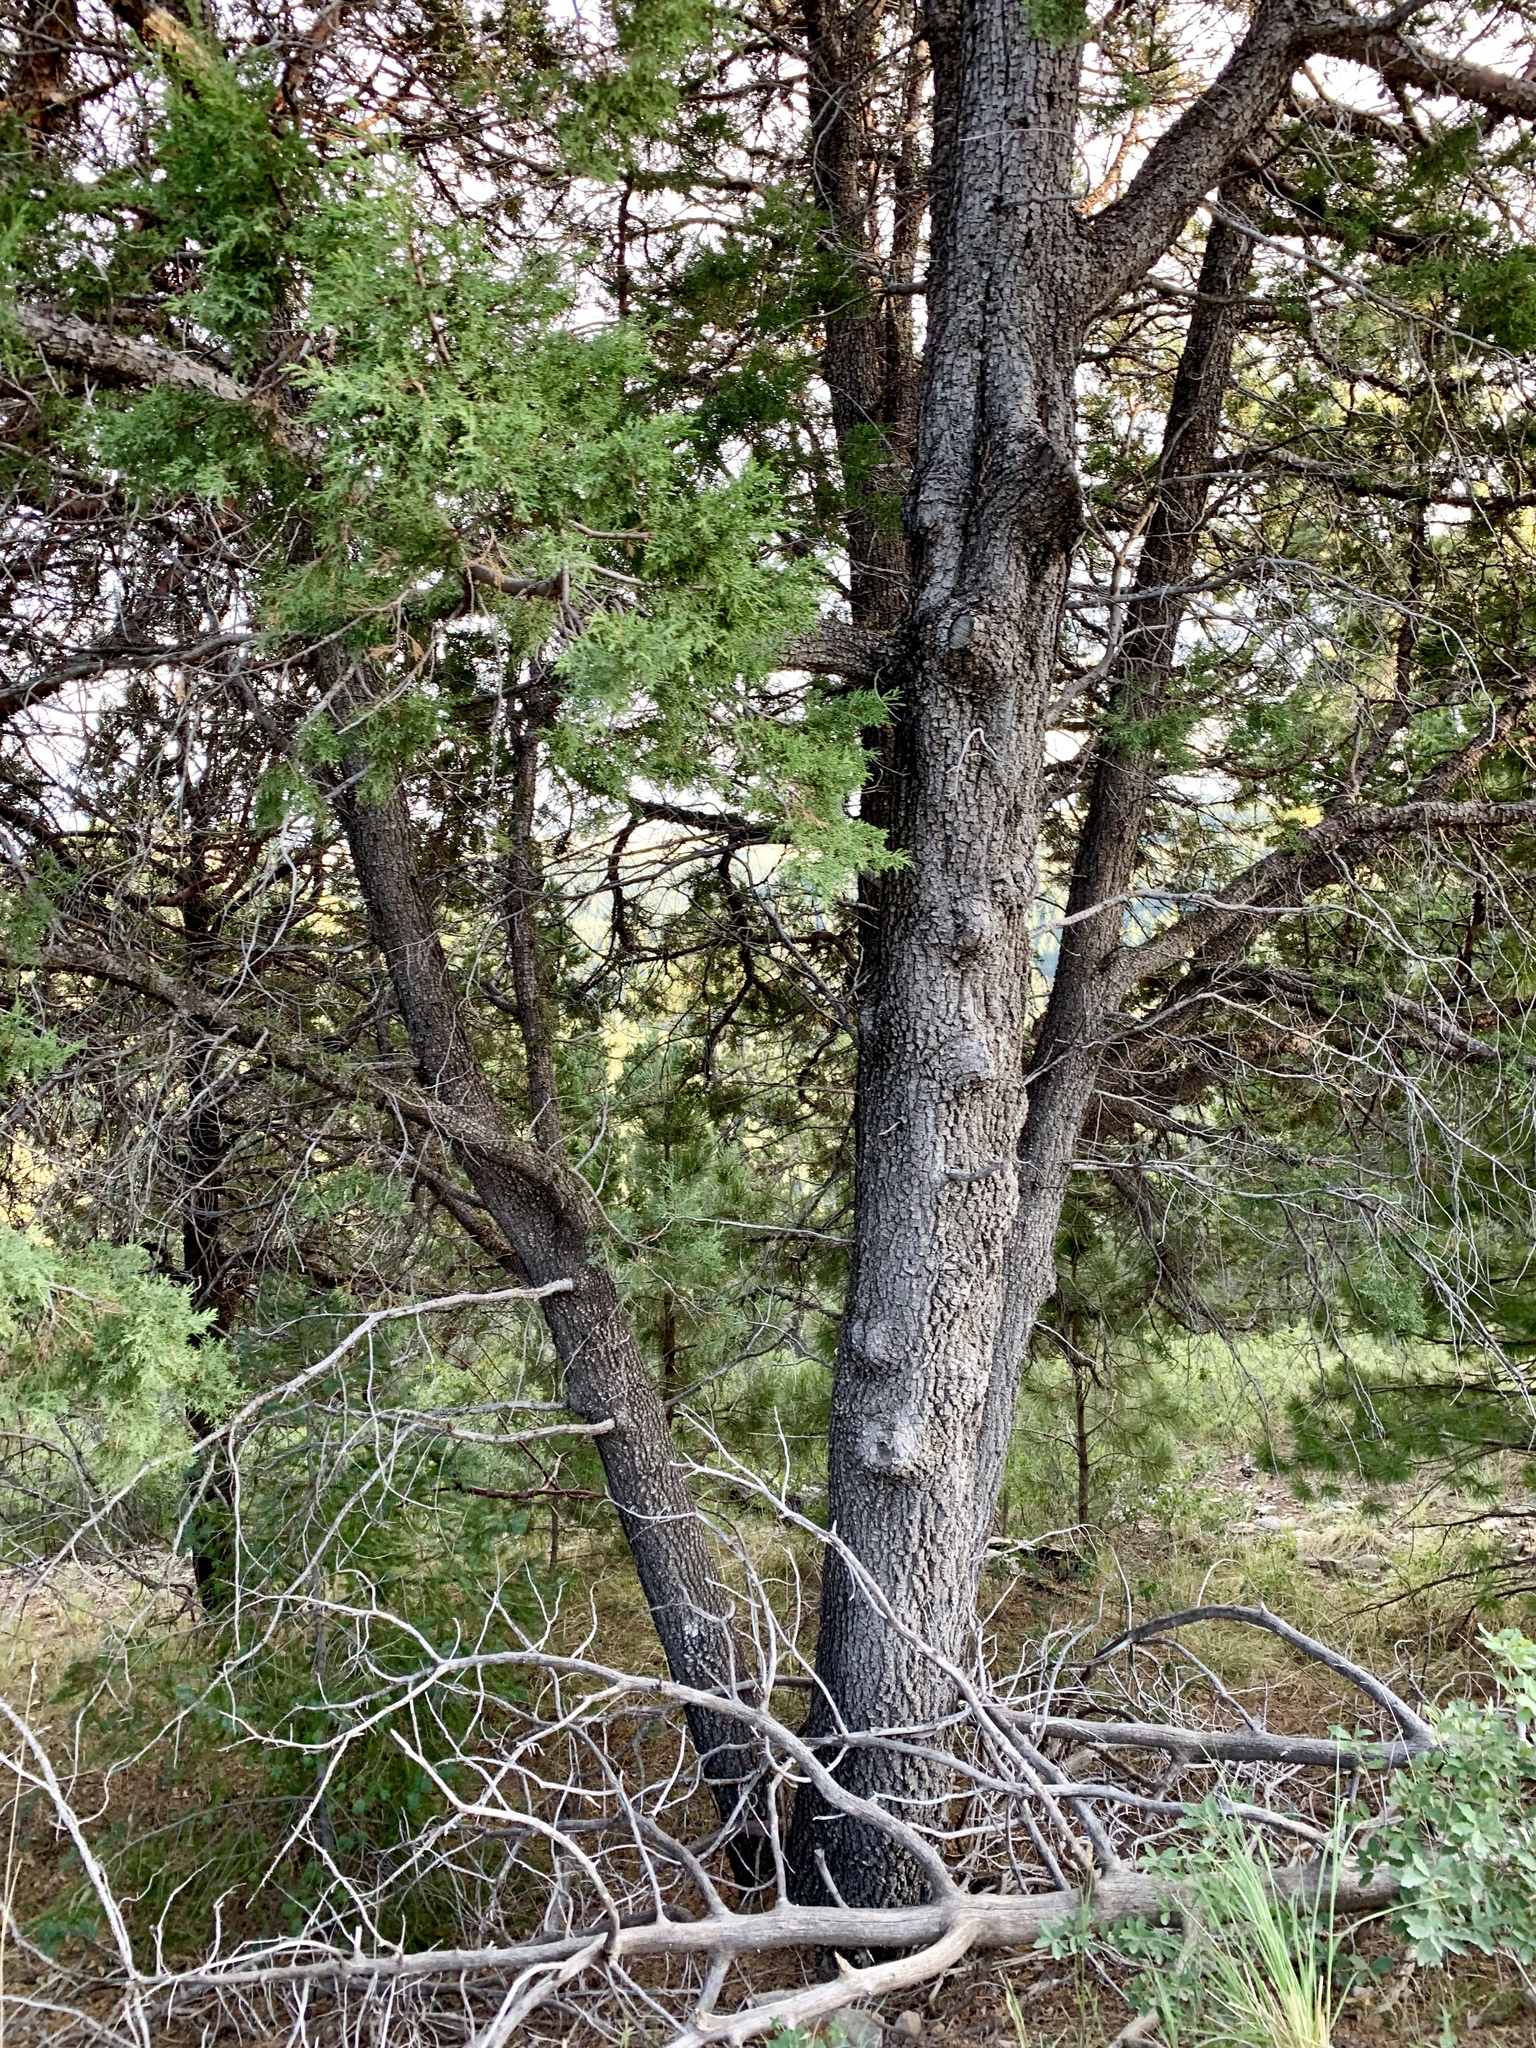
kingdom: Plantae
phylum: Tracheophyta
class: Pinopsida
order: Pinales
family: Cupressaceae
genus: Juniperus
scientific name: Juniperus deppeana
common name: Alligator juniper
